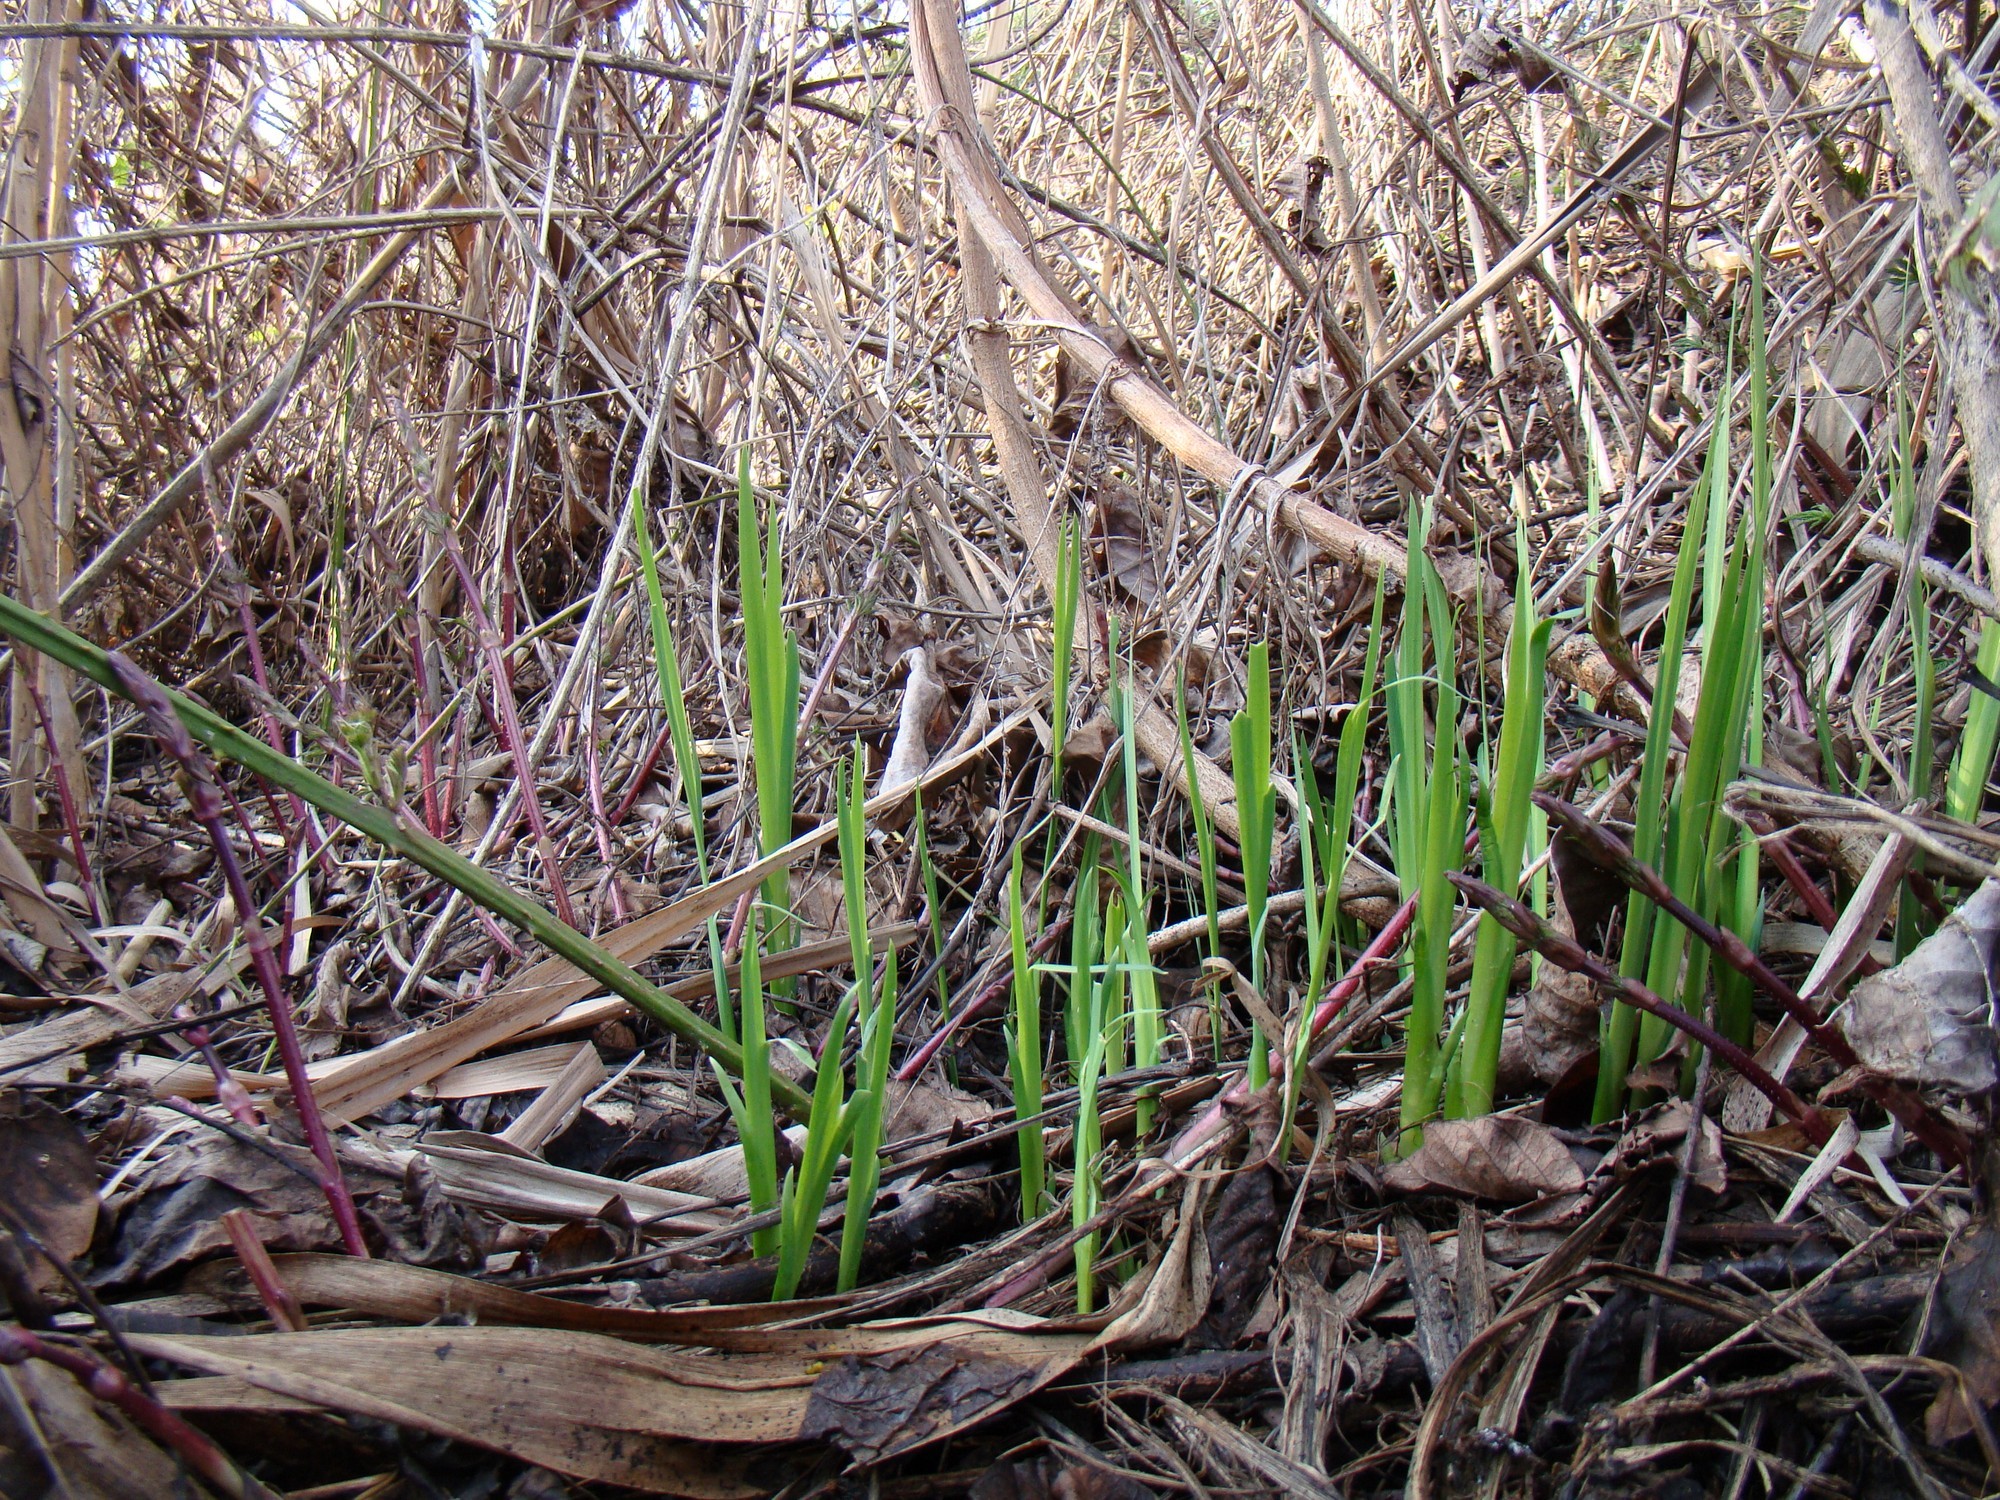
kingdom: Plantae
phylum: Tracheophyta
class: Liliopsida
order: Asparagales
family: Iridaceae
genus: Iris
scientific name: Iris pseudacorus
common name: Yellow flag
